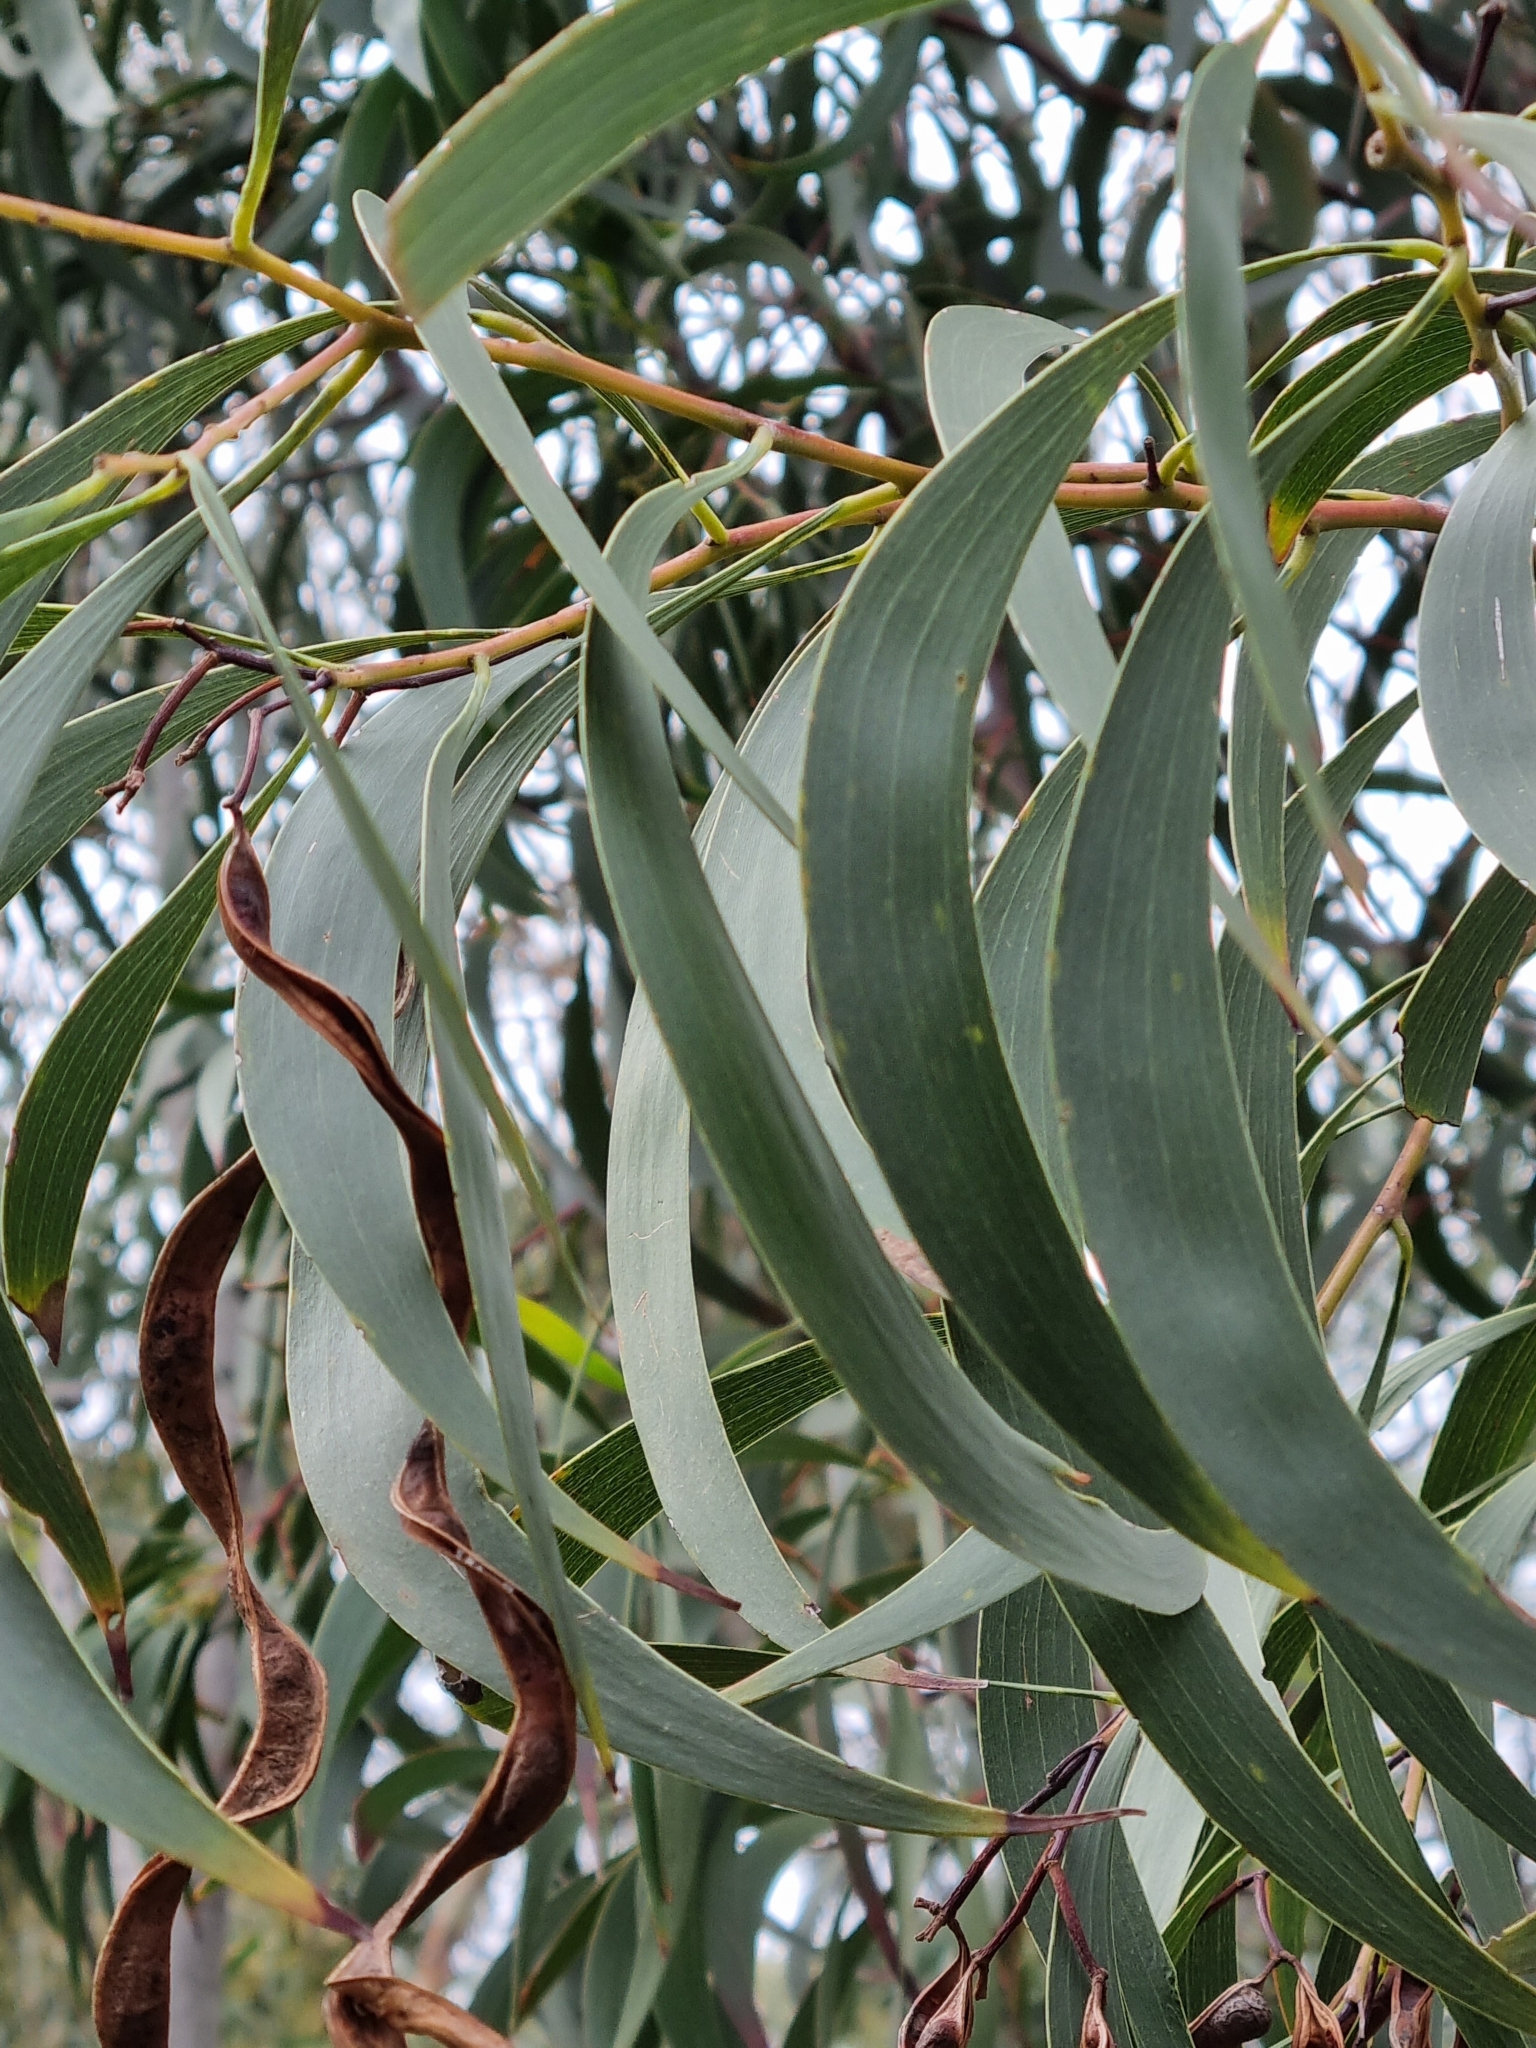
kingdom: Plantae
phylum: Tracheophyta
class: Magnoliopsida
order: Fabales
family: Fabaceae
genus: Acacia
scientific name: Acacia implexa
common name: Black wattle
